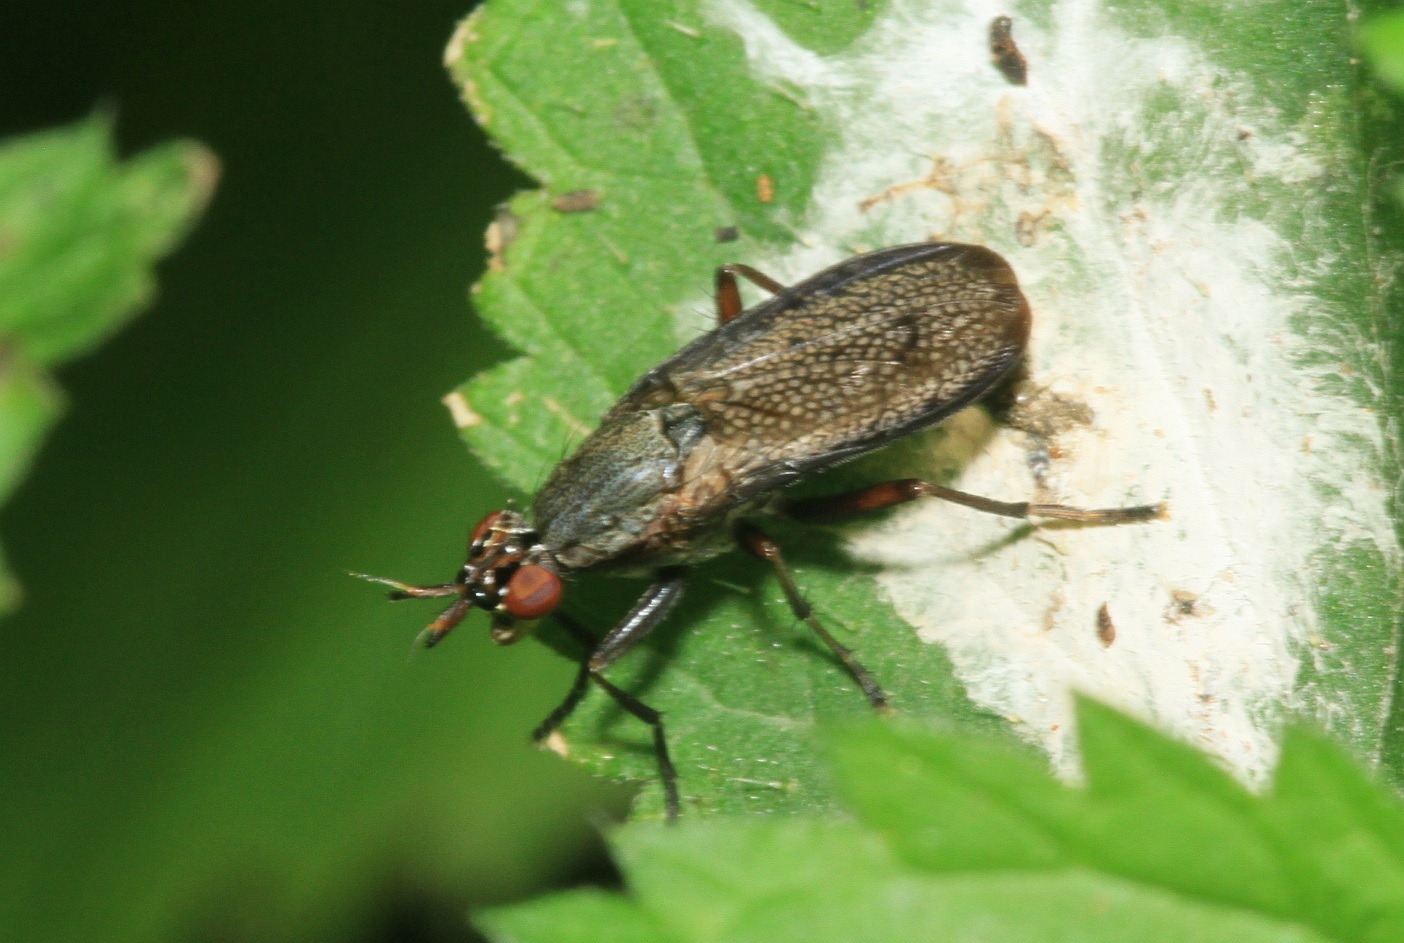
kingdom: Animalia
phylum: Arthropoda
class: Insecta
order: Diptera
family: Sciomyzidae
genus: Coremacera
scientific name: Coremacera marginata
